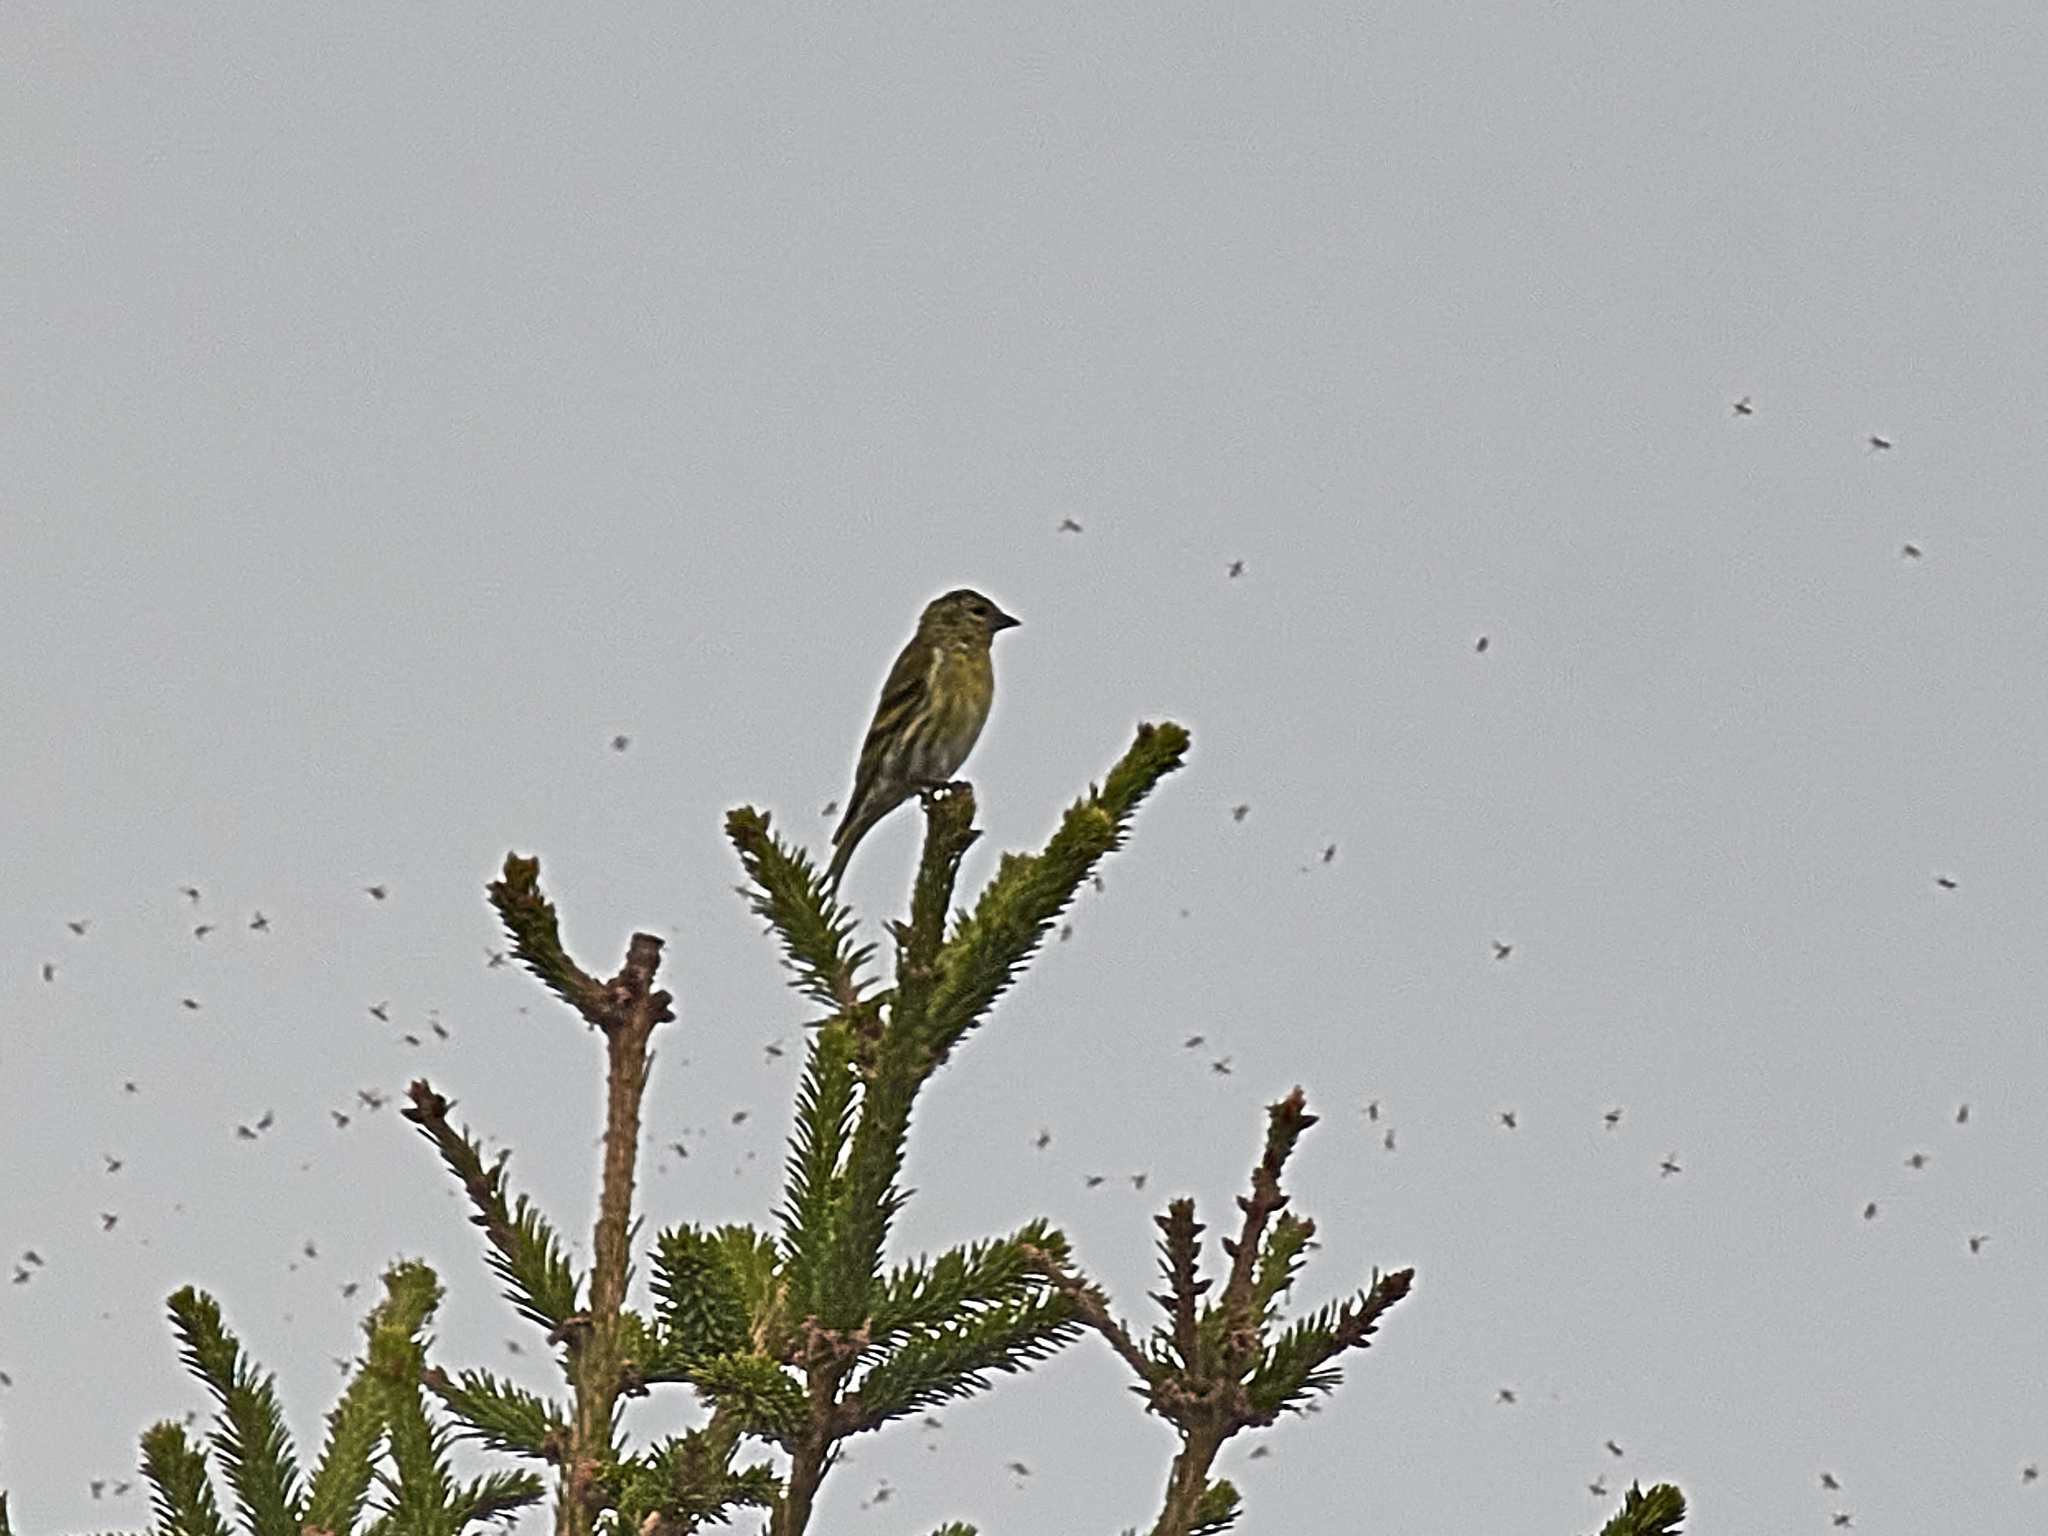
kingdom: Animalia
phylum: Chordata
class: Aves
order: Passeriformes
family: Fringillidae
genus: Spinus
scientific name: Spinus spinus
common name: Eurasian siskin
